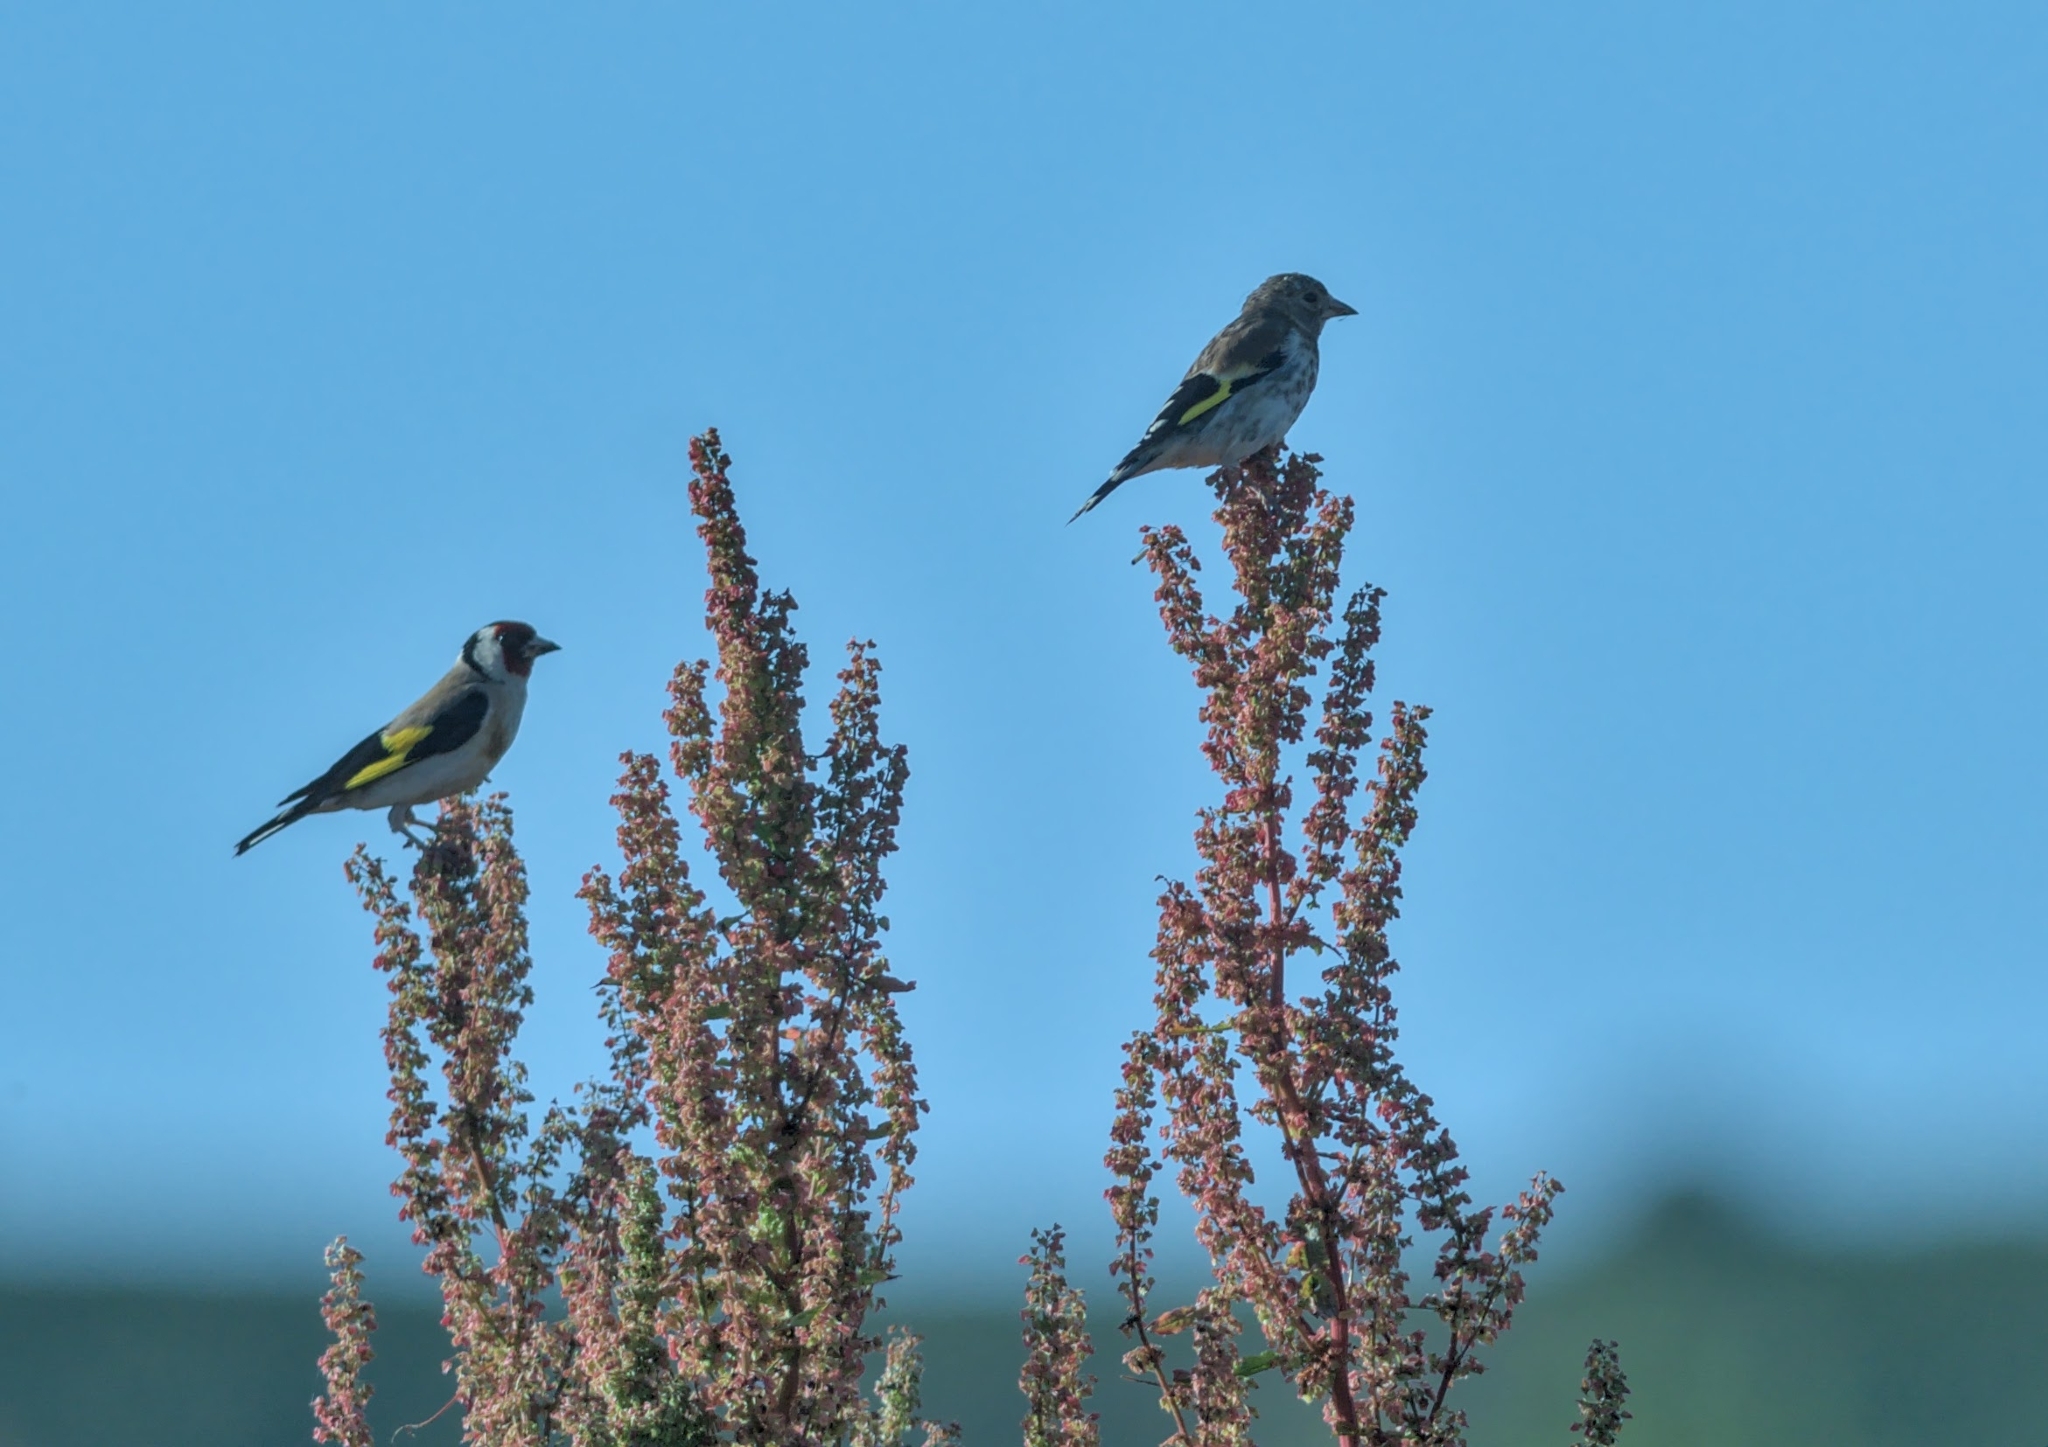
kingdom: Animalia
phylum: Chordata
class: Aves
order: Passeriformes
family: Fringillidae
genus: Carduelis
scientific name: Carduelis carduelis
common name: European goldfinch
